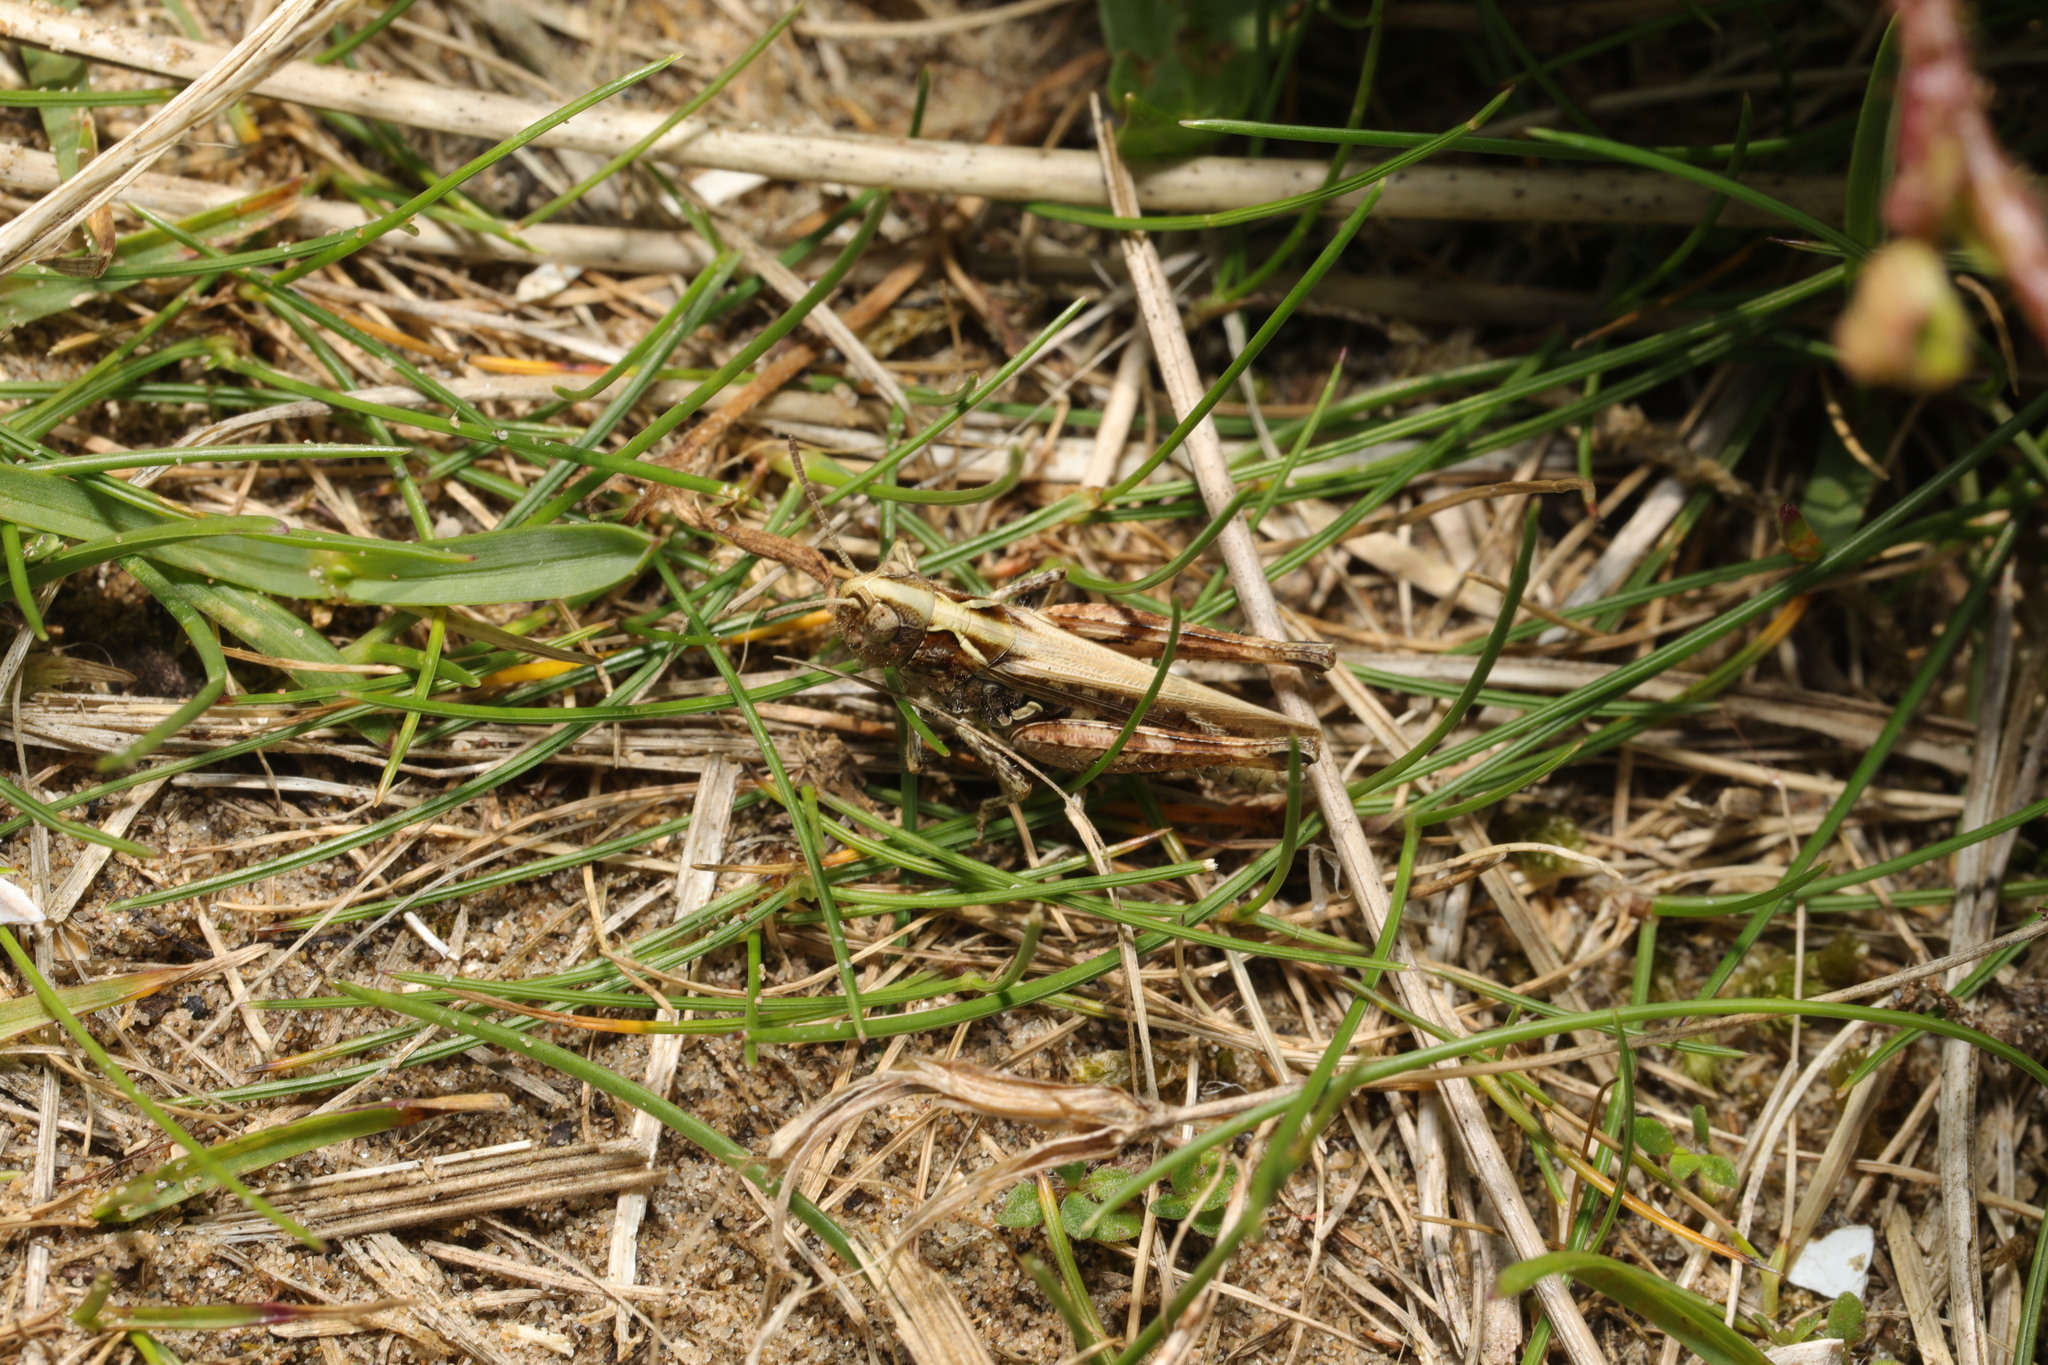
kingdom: Animalia
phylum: Arthropoda
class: Insecta
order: Orthoptera
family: Acrididae
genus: Myrmeleotettix
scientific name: Myrmeleotettix maculatus
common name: Mottled grasshopper
